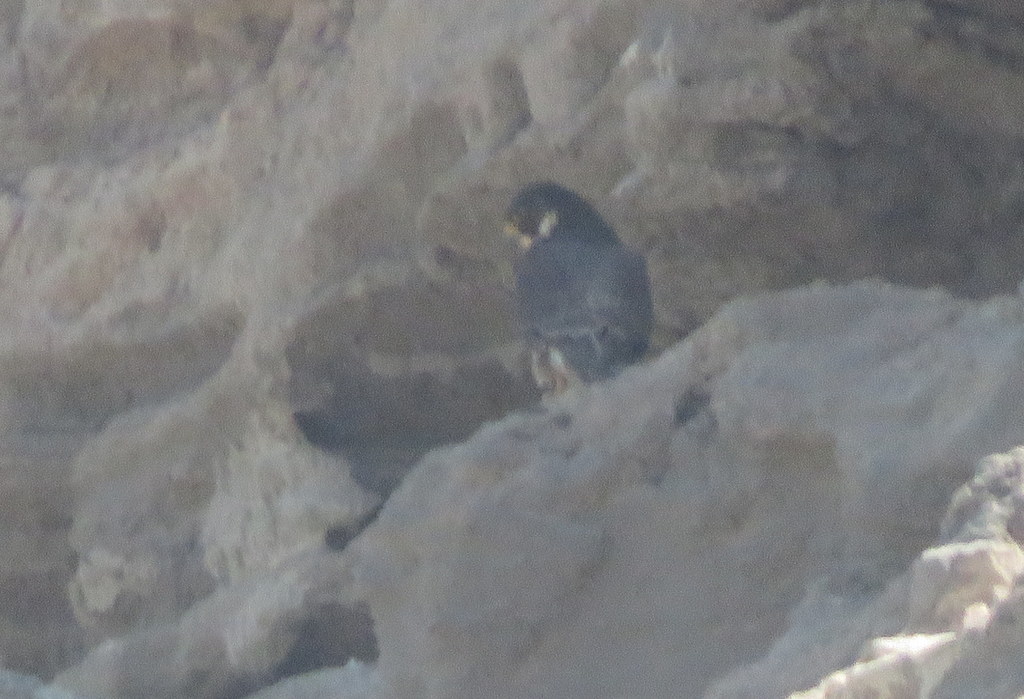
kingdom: Animalia
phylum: Chordata
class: Aves
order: Falconiformes
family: Falconidae
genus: Falco
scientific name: Falco peregrinus
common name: Peregrine falcon
